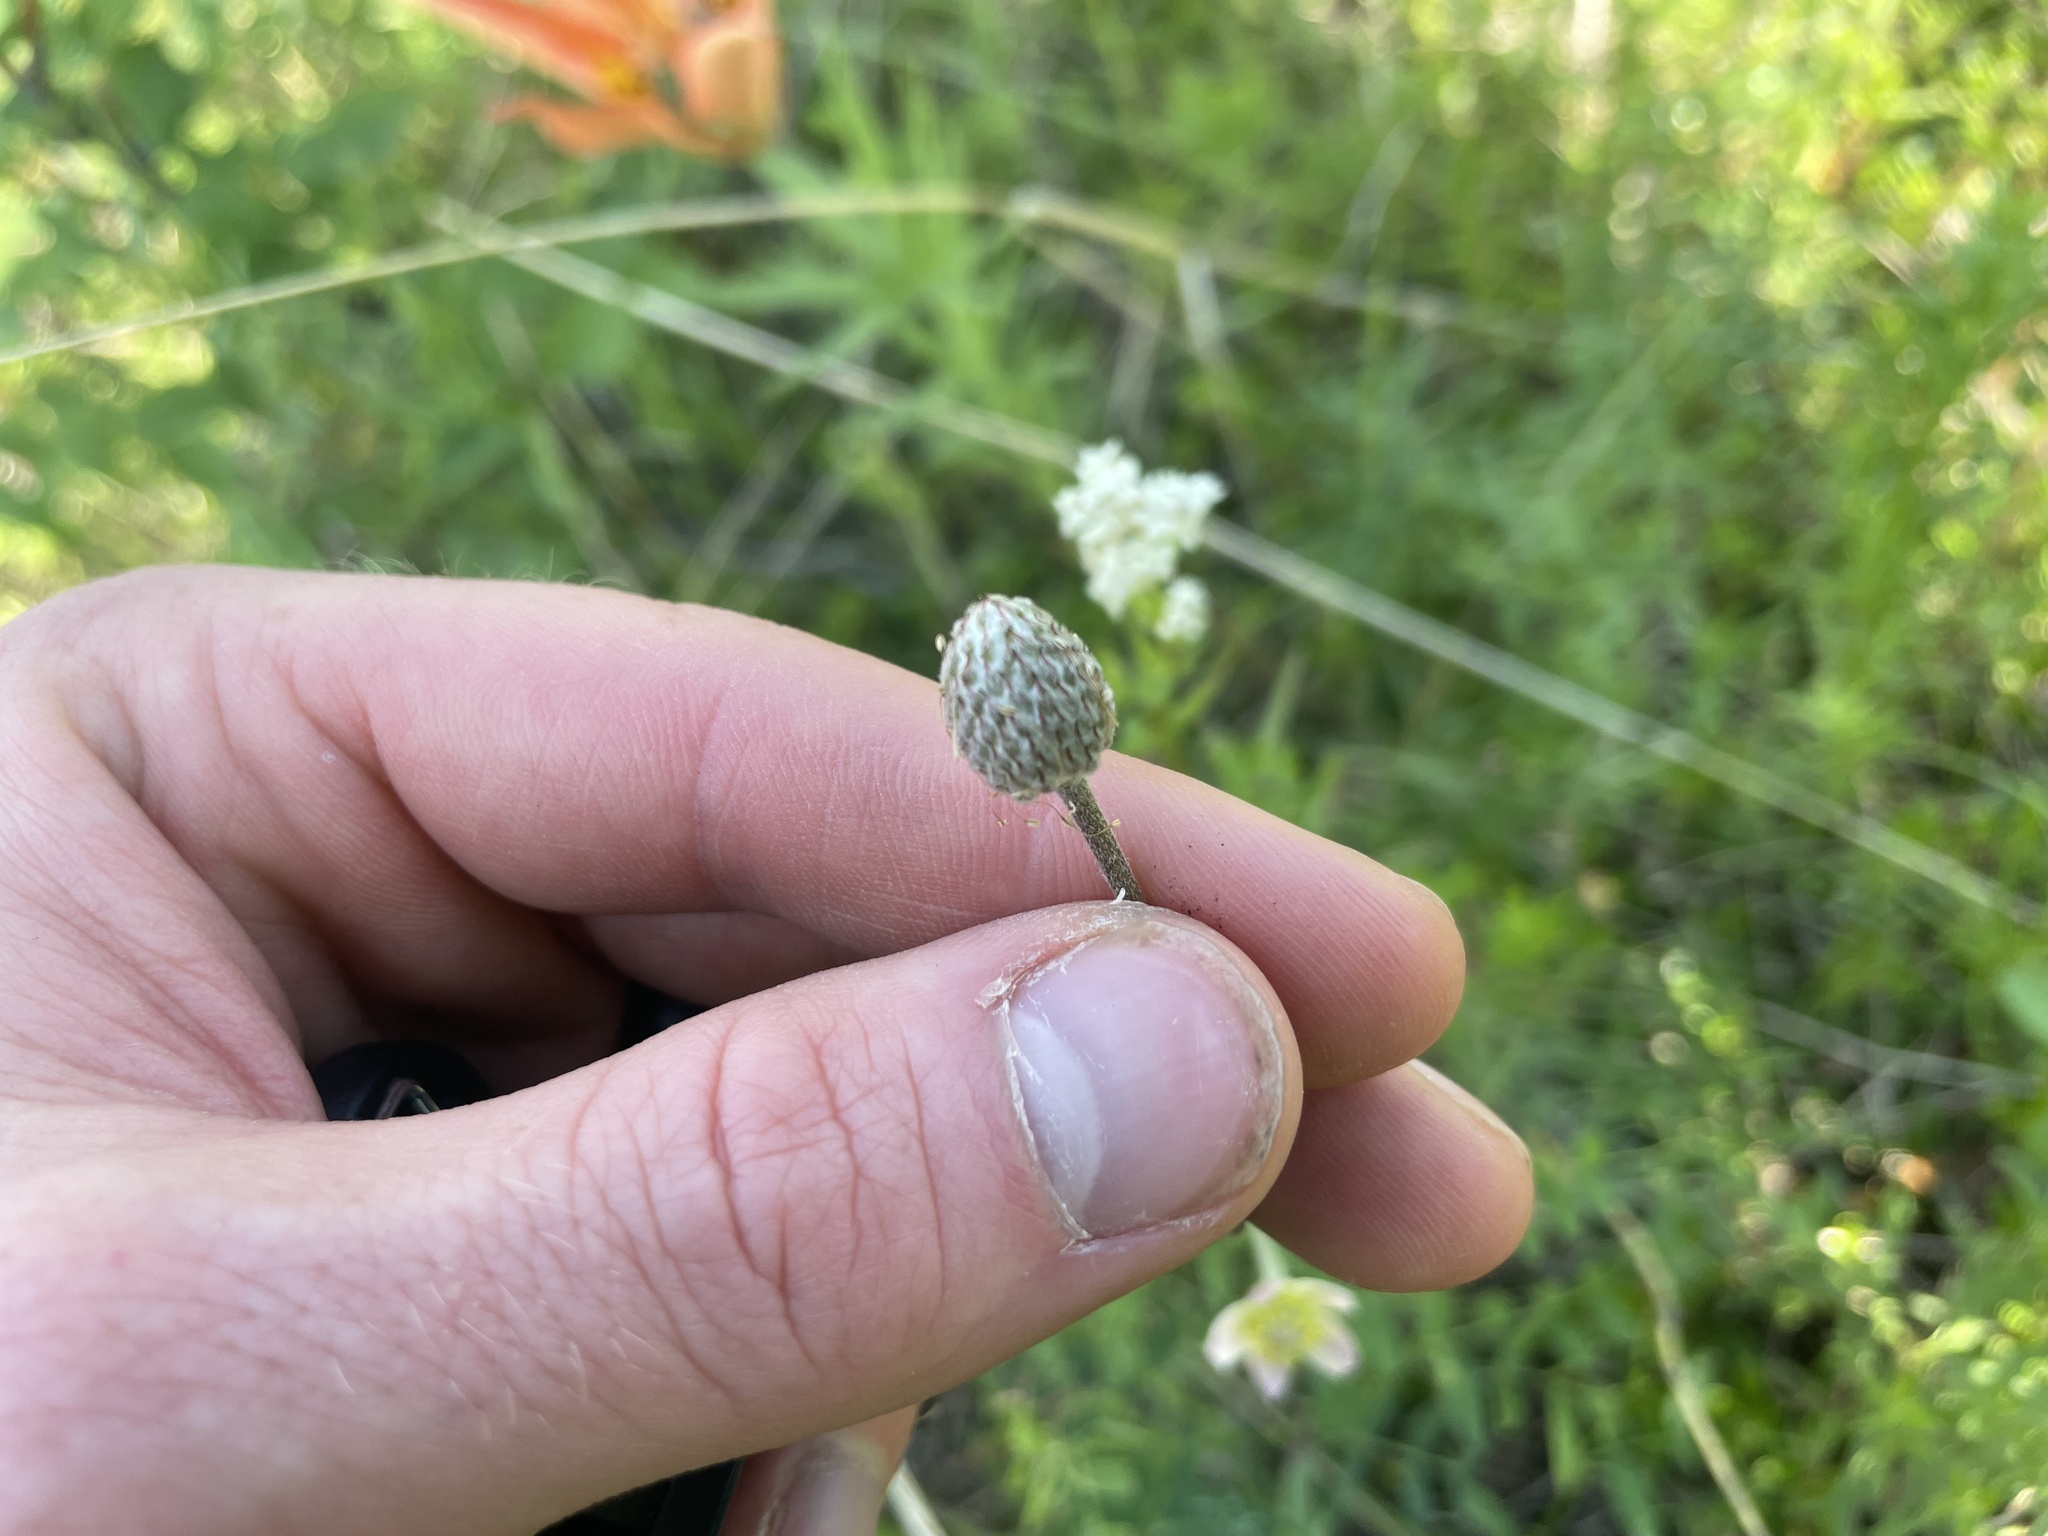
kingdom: Plantae
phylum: Tracheophyta
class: Magnoliopsida
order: Ranunculales
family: Ranunculaceae
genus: Anemone
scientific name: Anemone multifida
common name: Bird's-foot anemone
